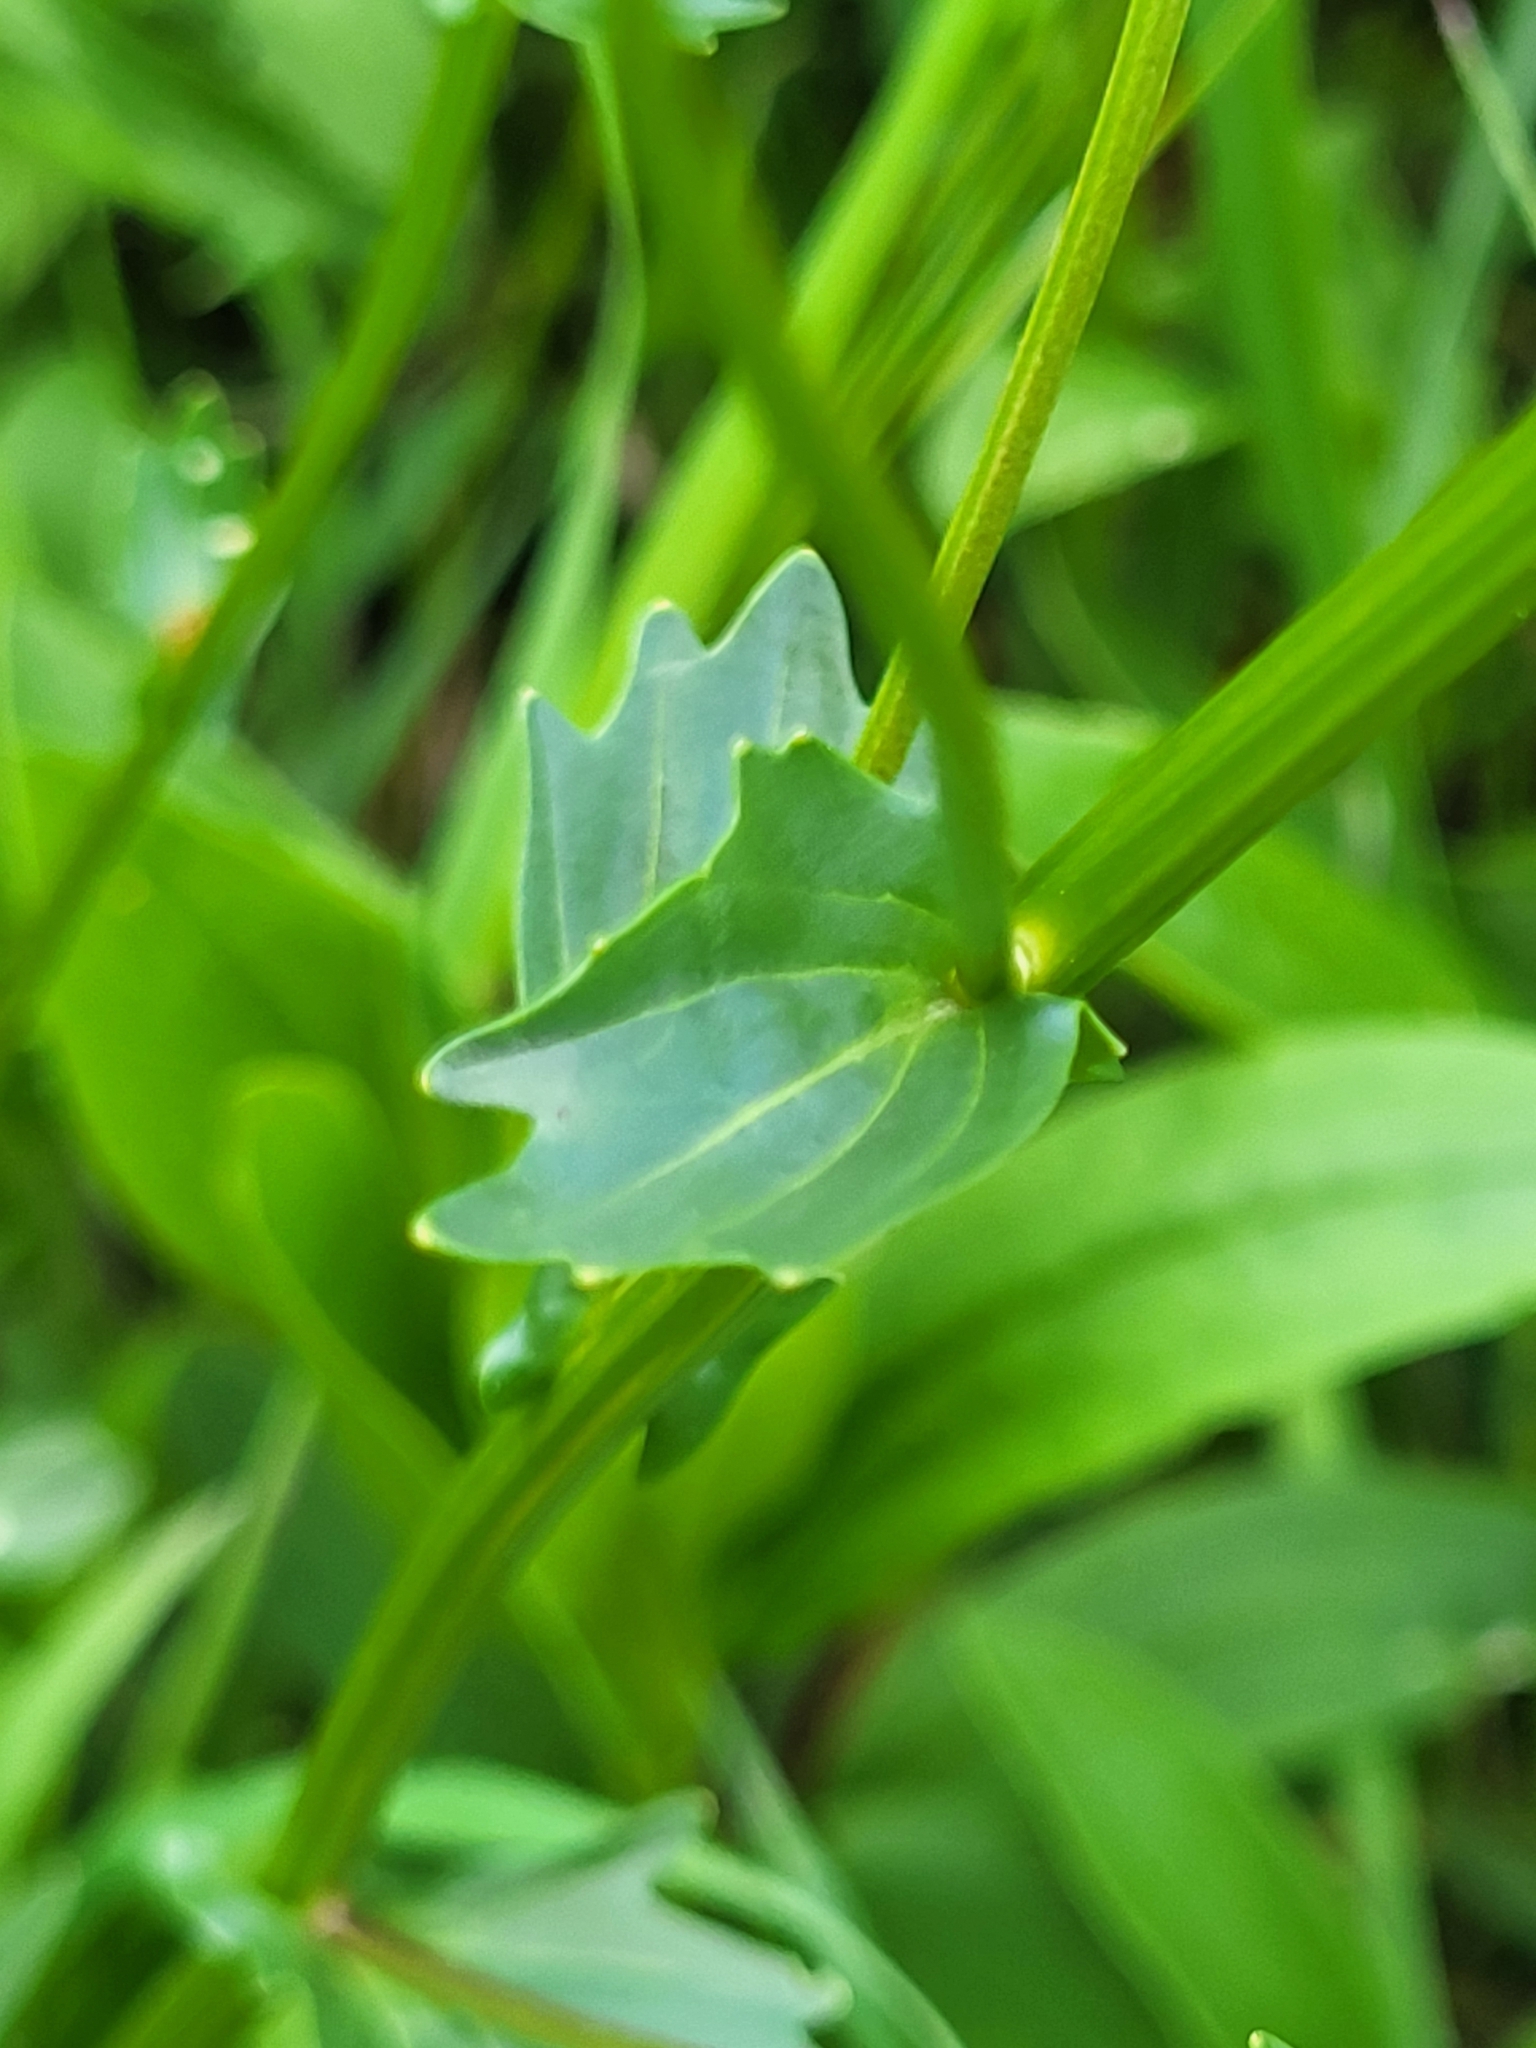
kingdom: Plantae
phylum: Tracheophyta
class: Magnoliopsida
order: Brassicales
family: Brassicaceae
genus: Barbarea
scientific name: Barbarea vulgaris
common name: Cressy-greens
